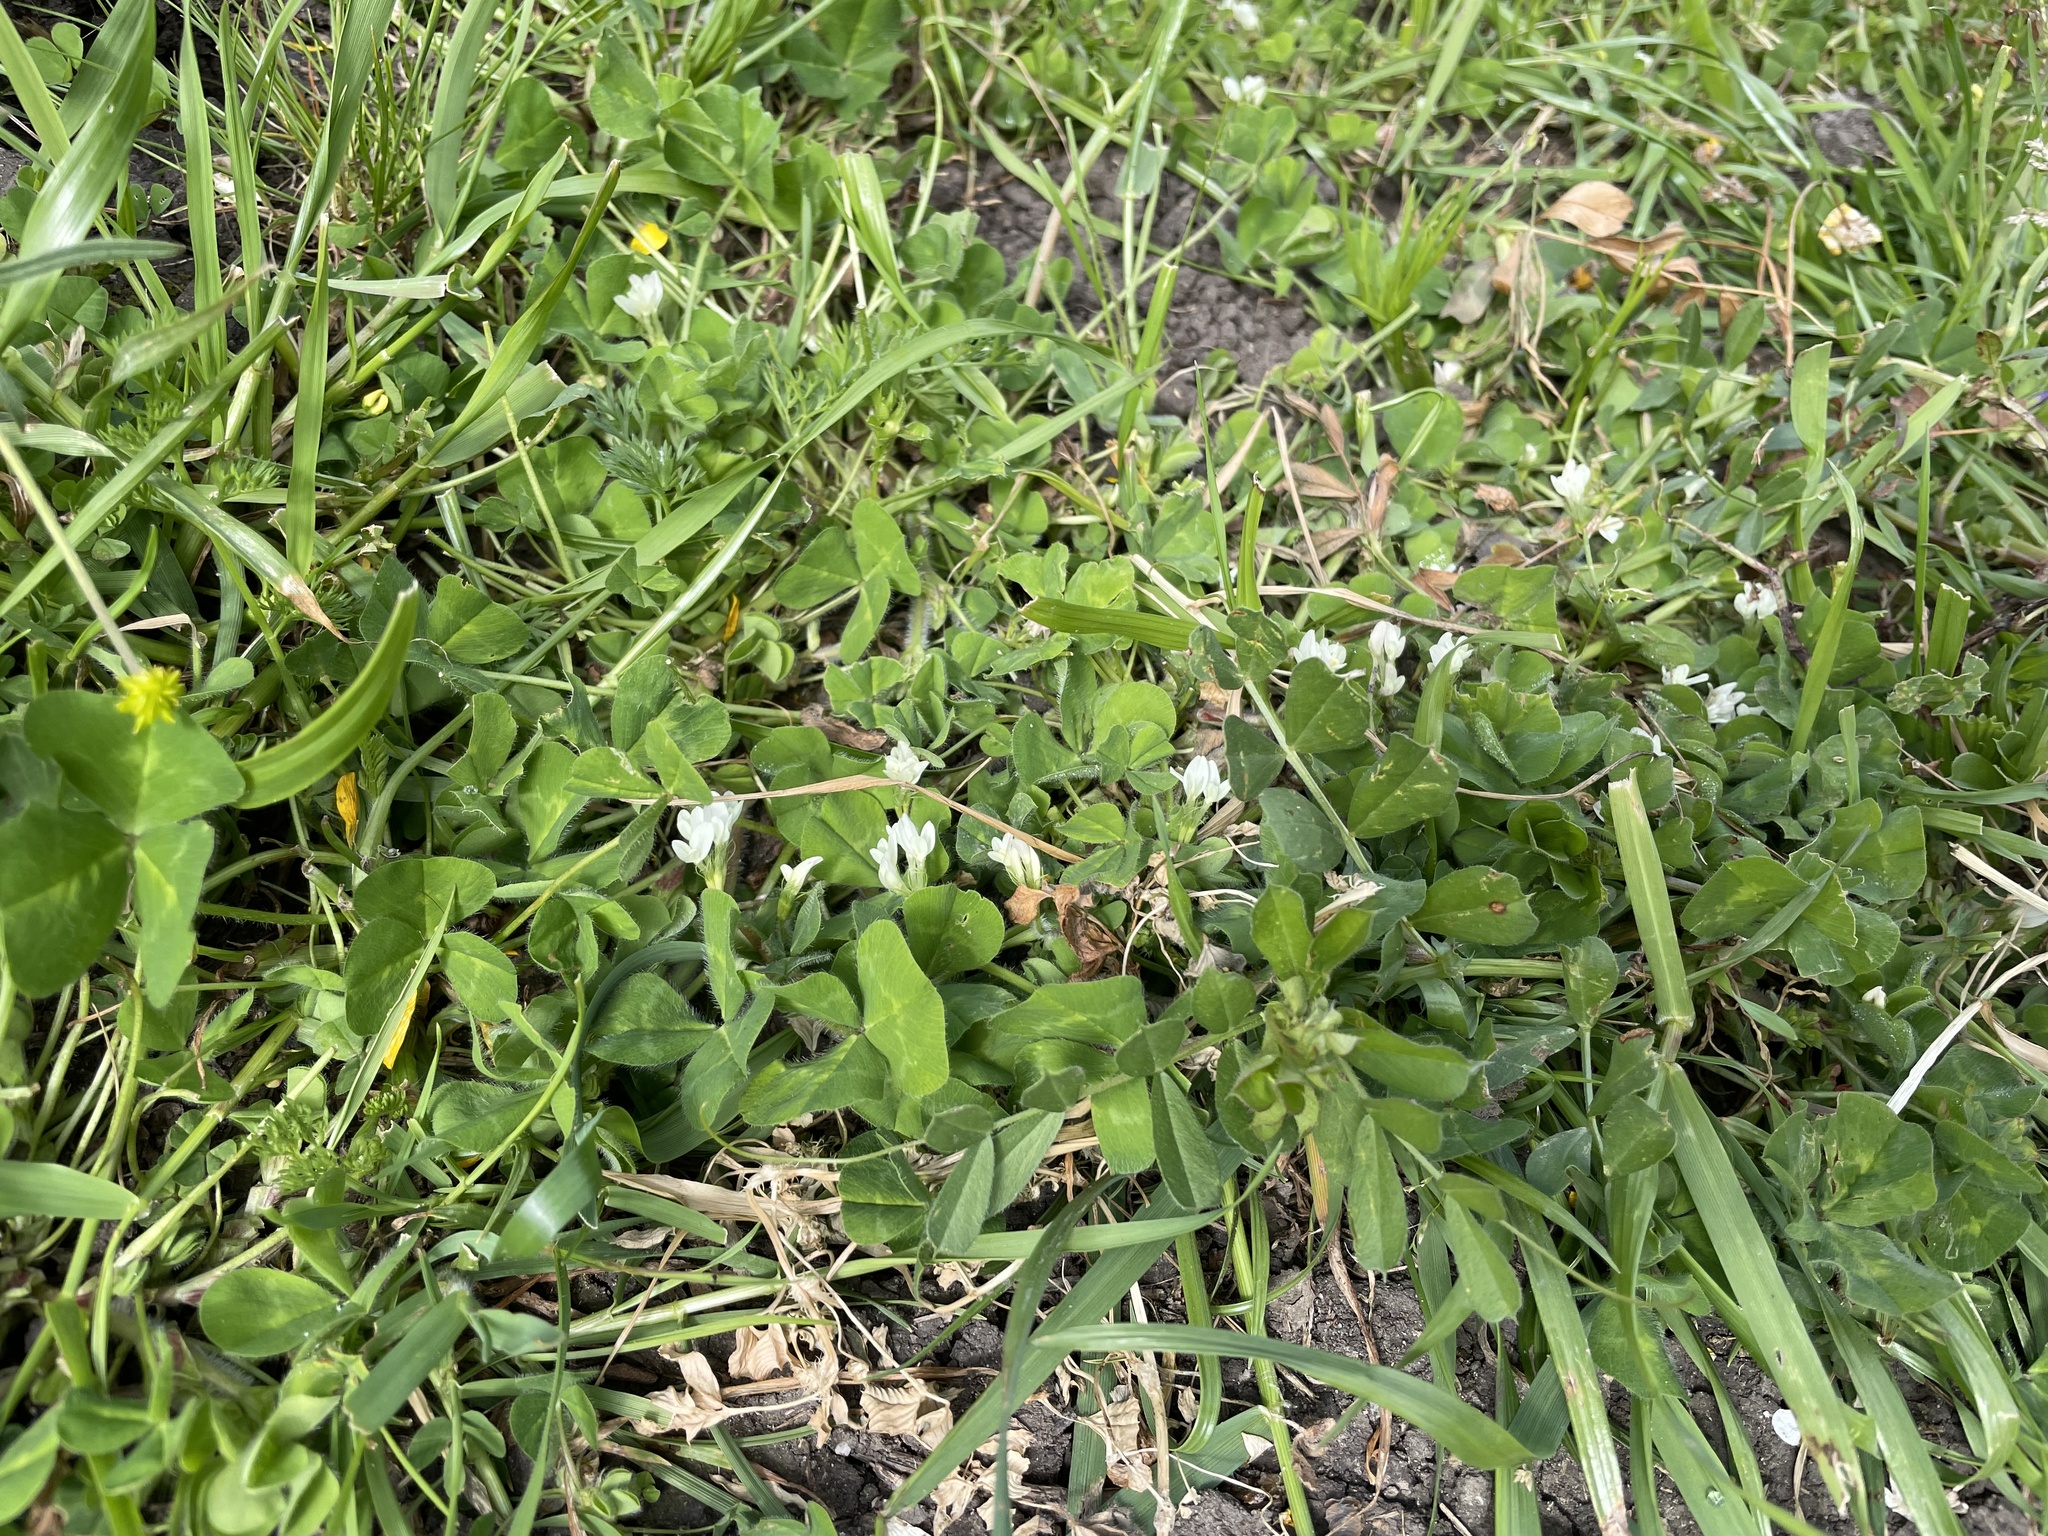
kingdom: Plantae
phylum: Tracheophyta
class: Magnoliopsida
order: Fabales
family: Fabaceae
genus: Trifolium
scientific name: Trifolium subterraneum
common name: Subterranean clover
